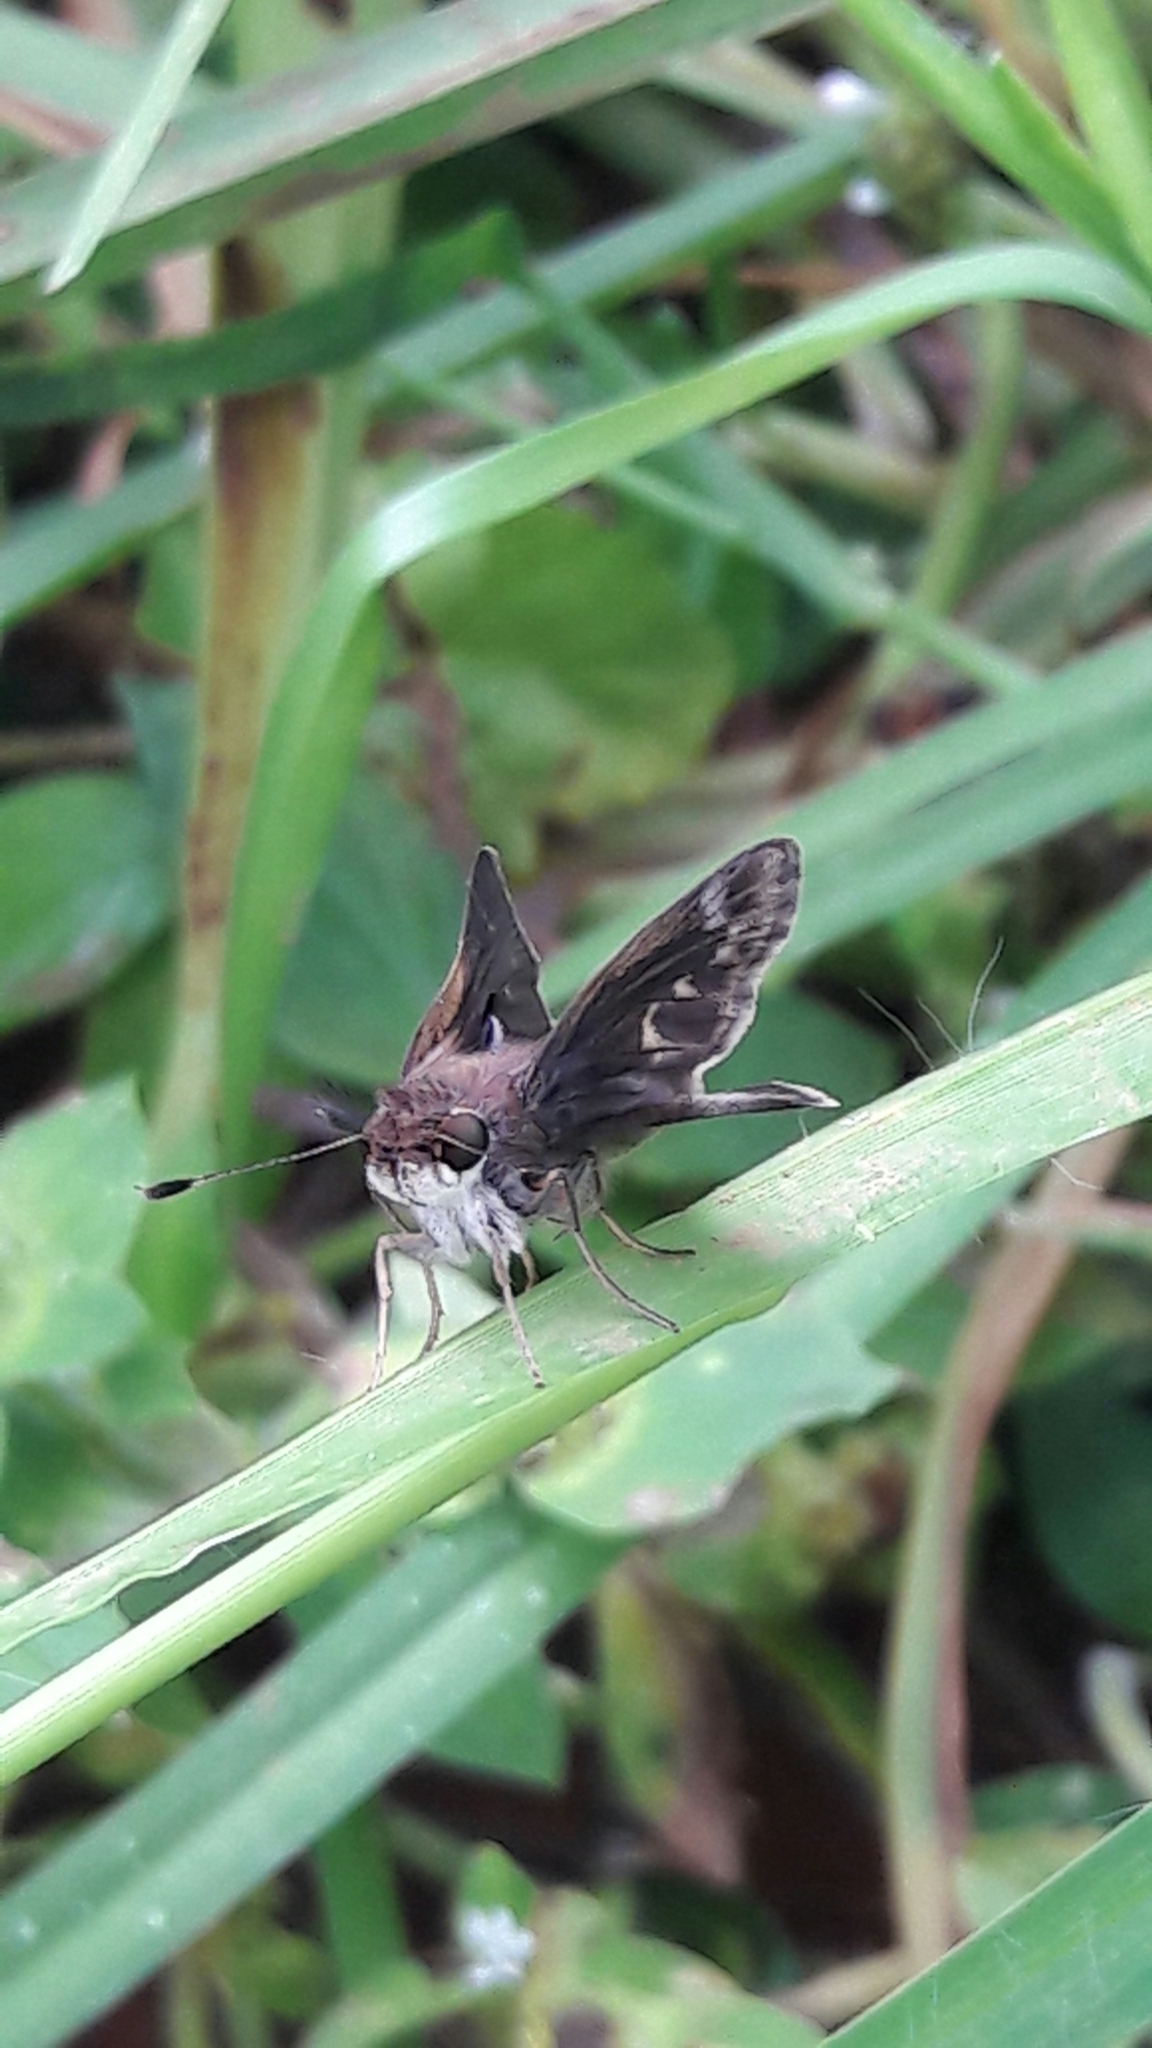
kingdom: Animalia
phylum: Arthropoda
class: Insecta
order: Lepidoptera
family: Hesperiidae
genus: Pompeius
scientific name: Pompeius pompeius
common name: Pompeius skipper
